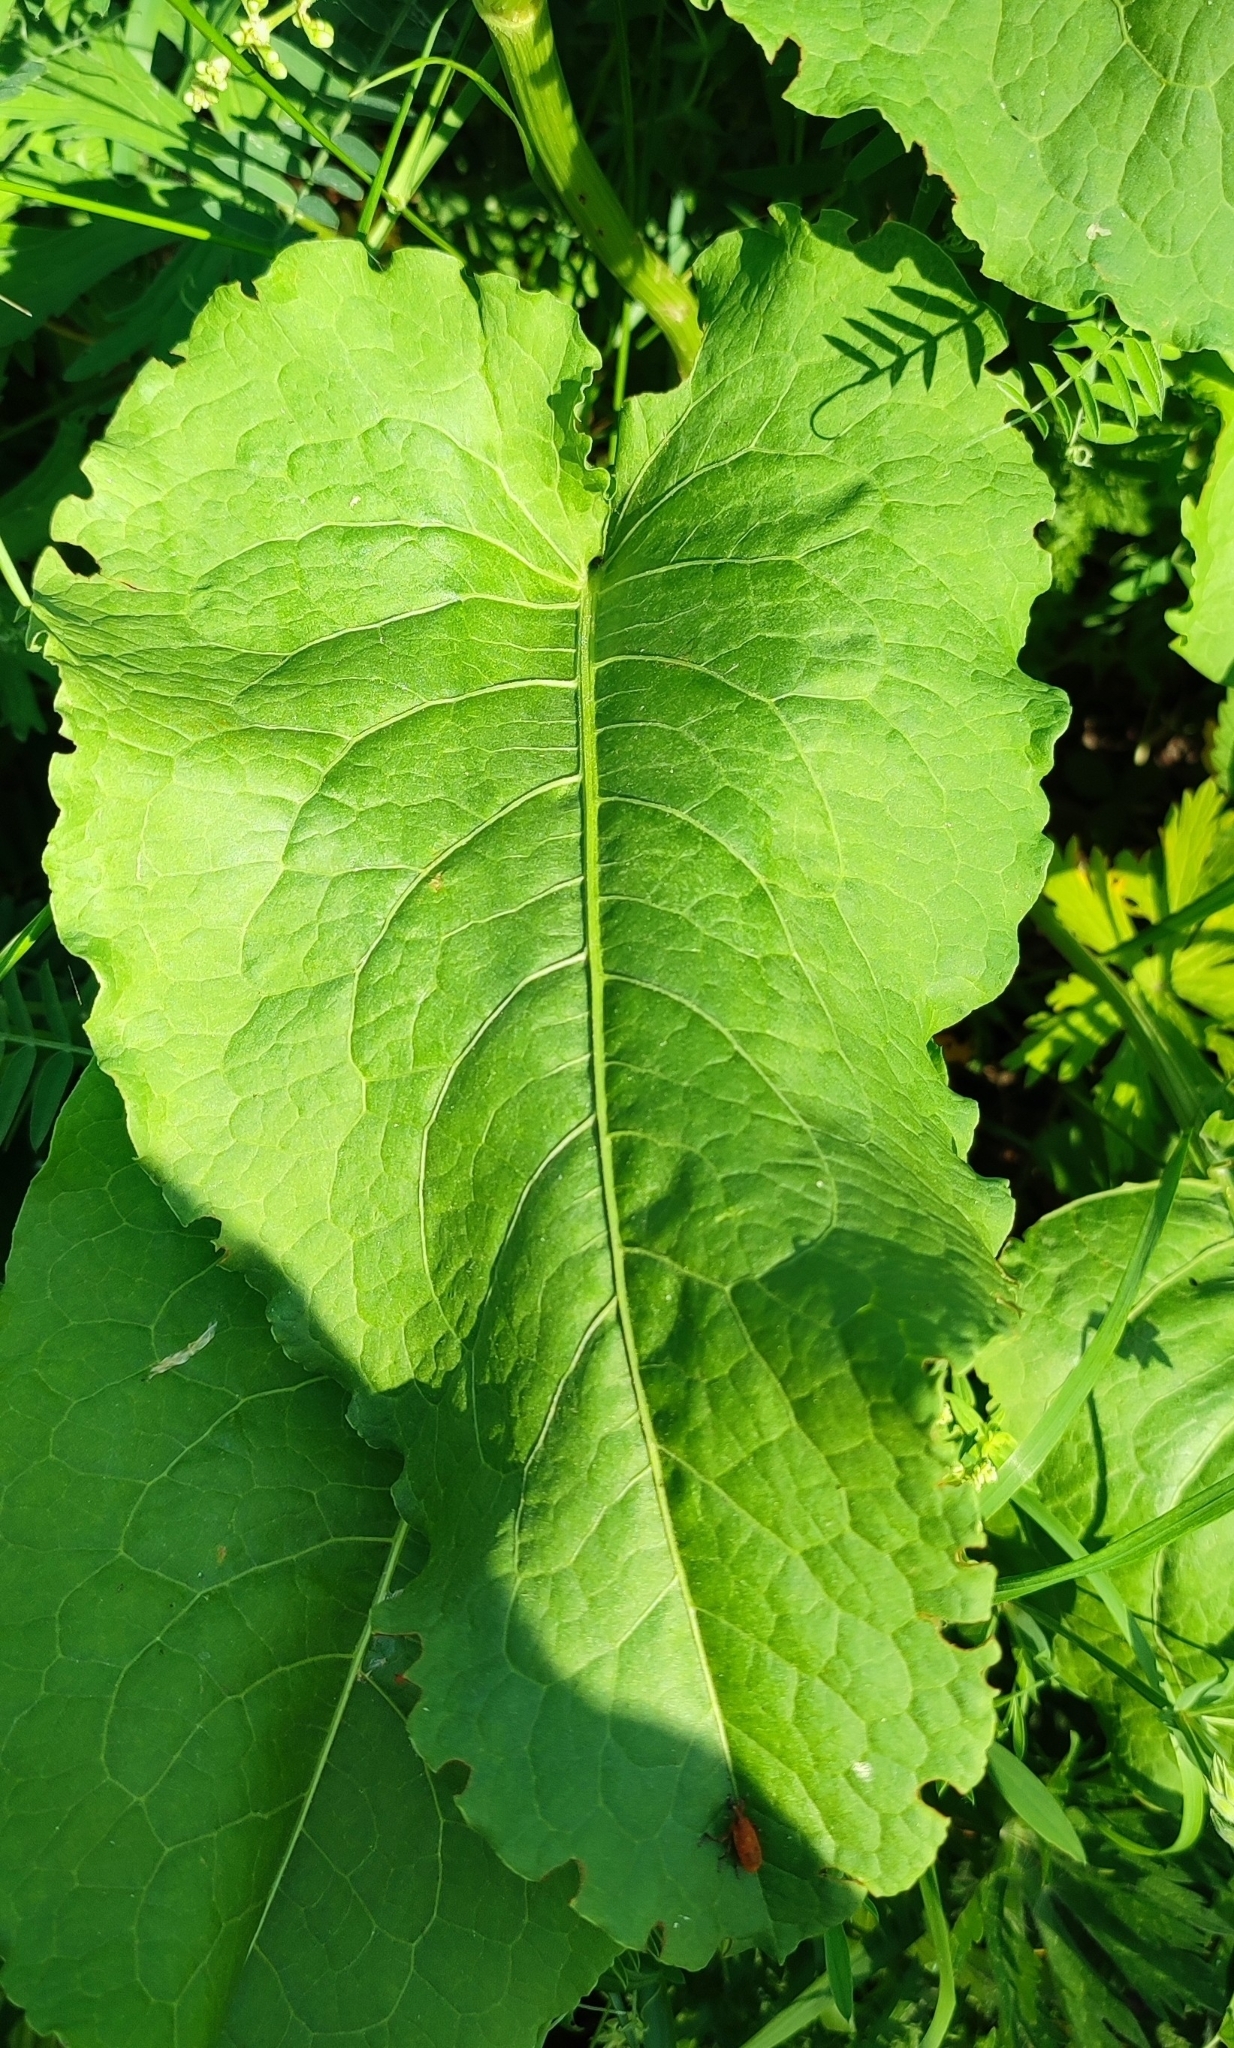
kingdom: Plantae
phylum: Tracheophyta
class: Magnoliopsida
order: Caryophyllales
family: Polygonaceae
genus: Rumex
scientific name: Rumex confertus
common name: Russian dock
